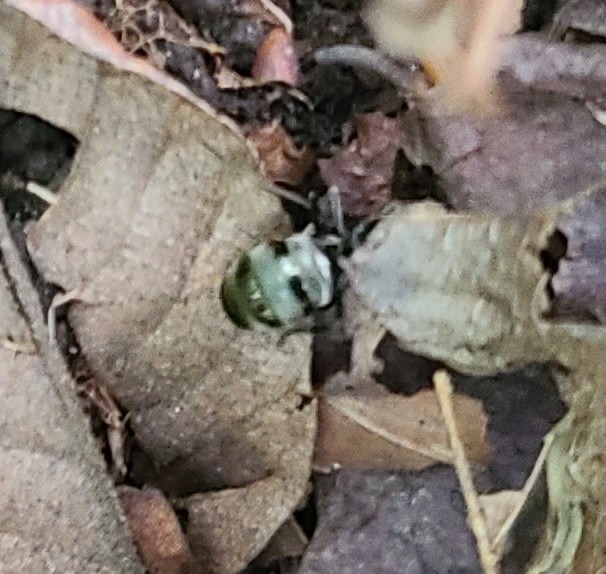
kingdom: Animalia
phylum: Arthropoda
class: Insecta
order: Hymenoptera
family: Mutillidae
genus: Pseudomethoca
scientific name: Pseudomethoca
